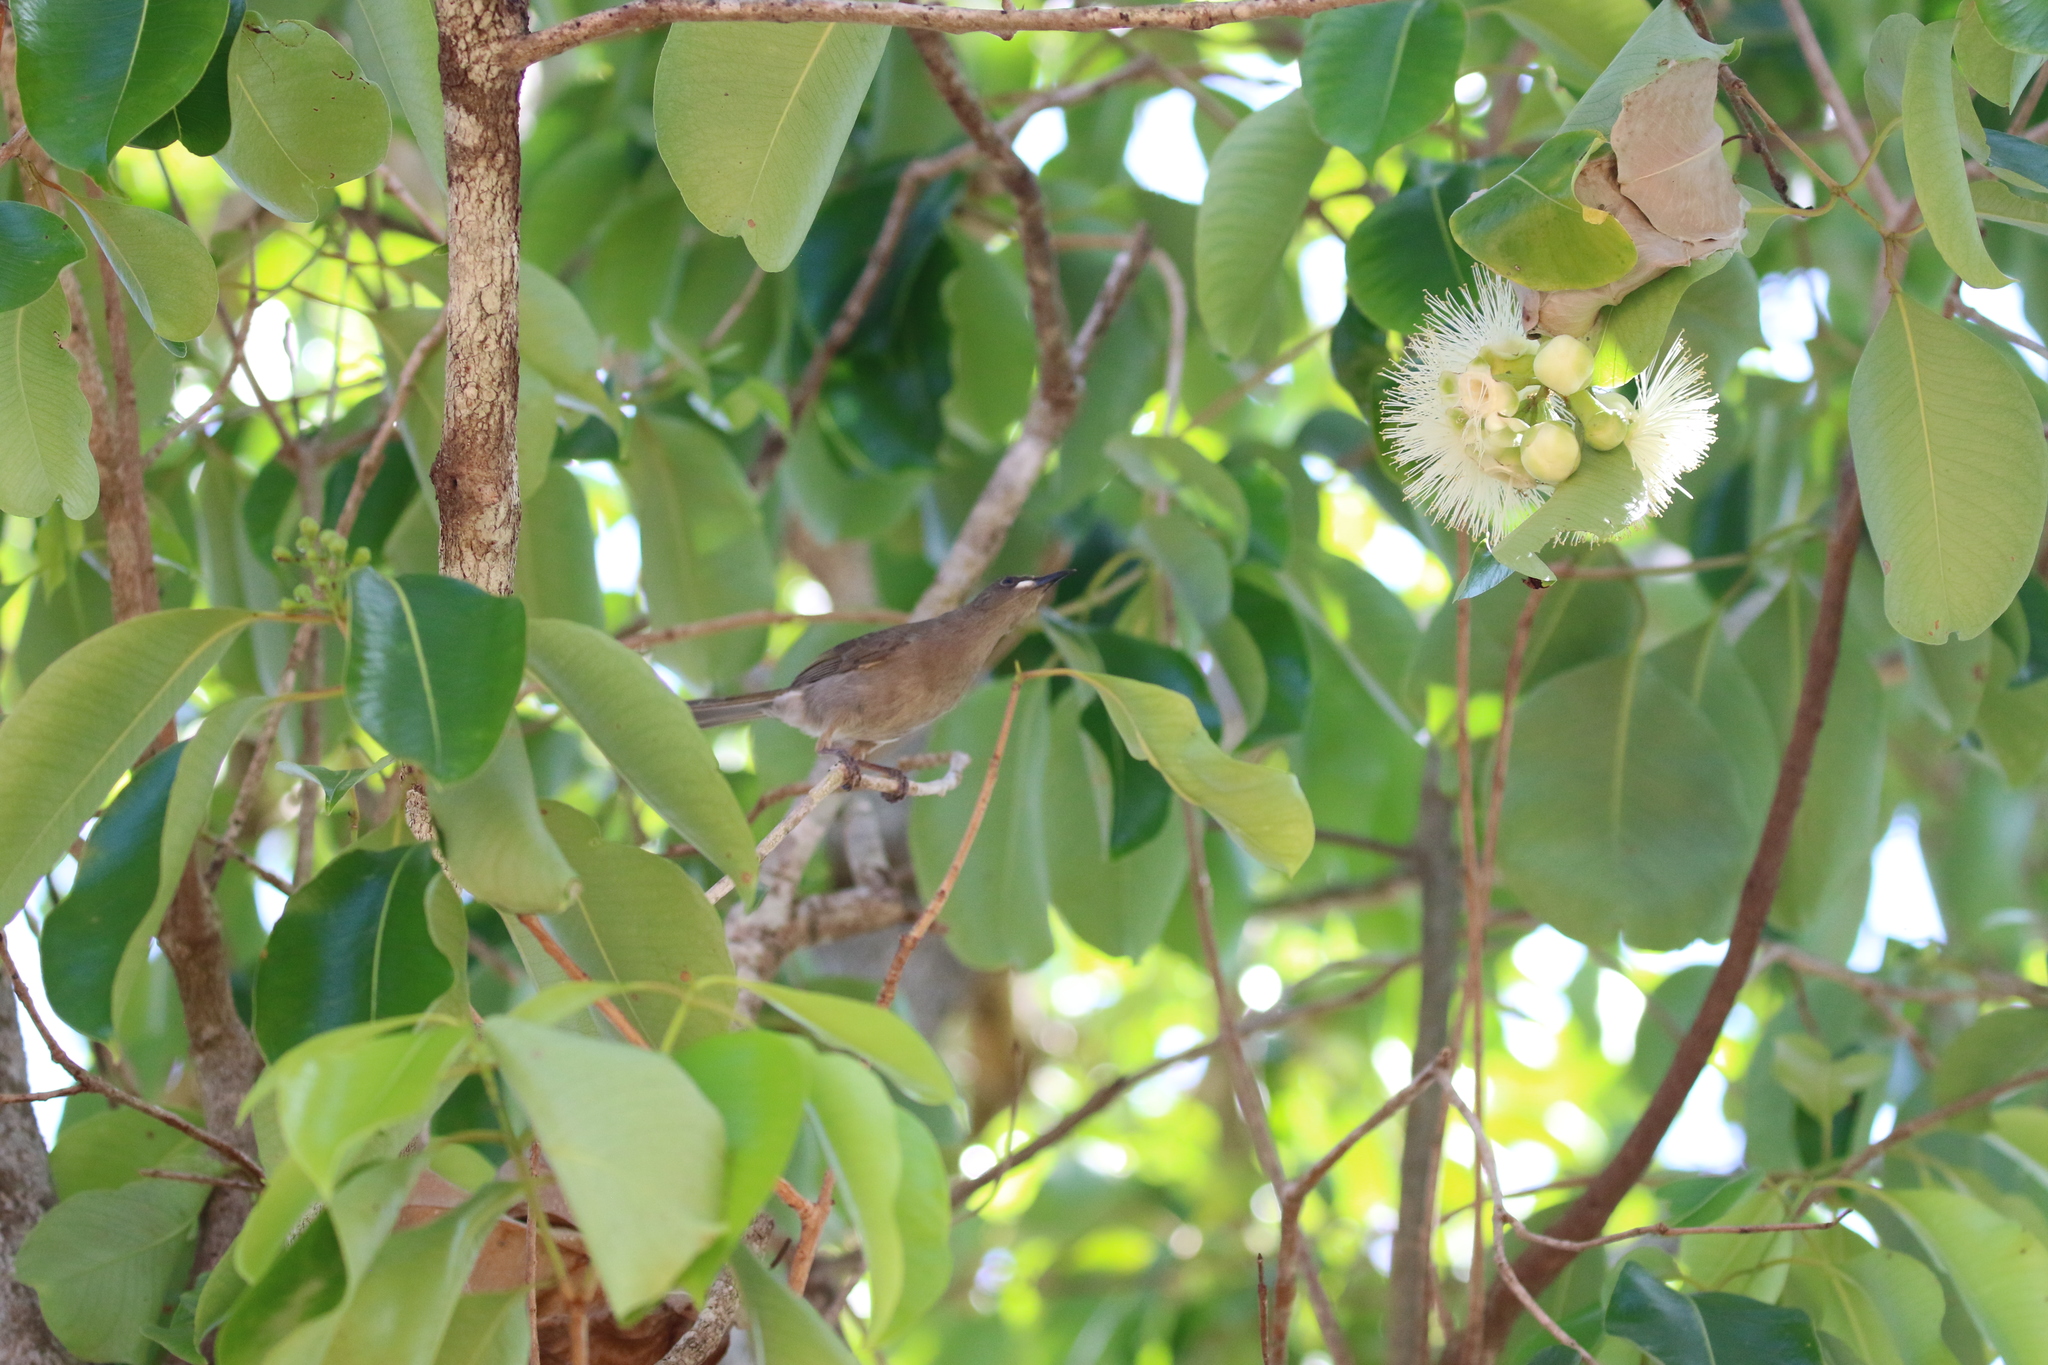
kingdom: Animalia
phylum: Chordata
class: Aves
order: Passeriformes
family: Meliphagidae
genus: Stomiopera
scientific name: Stomiopera unicolor
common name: White-gaped honeyeater
